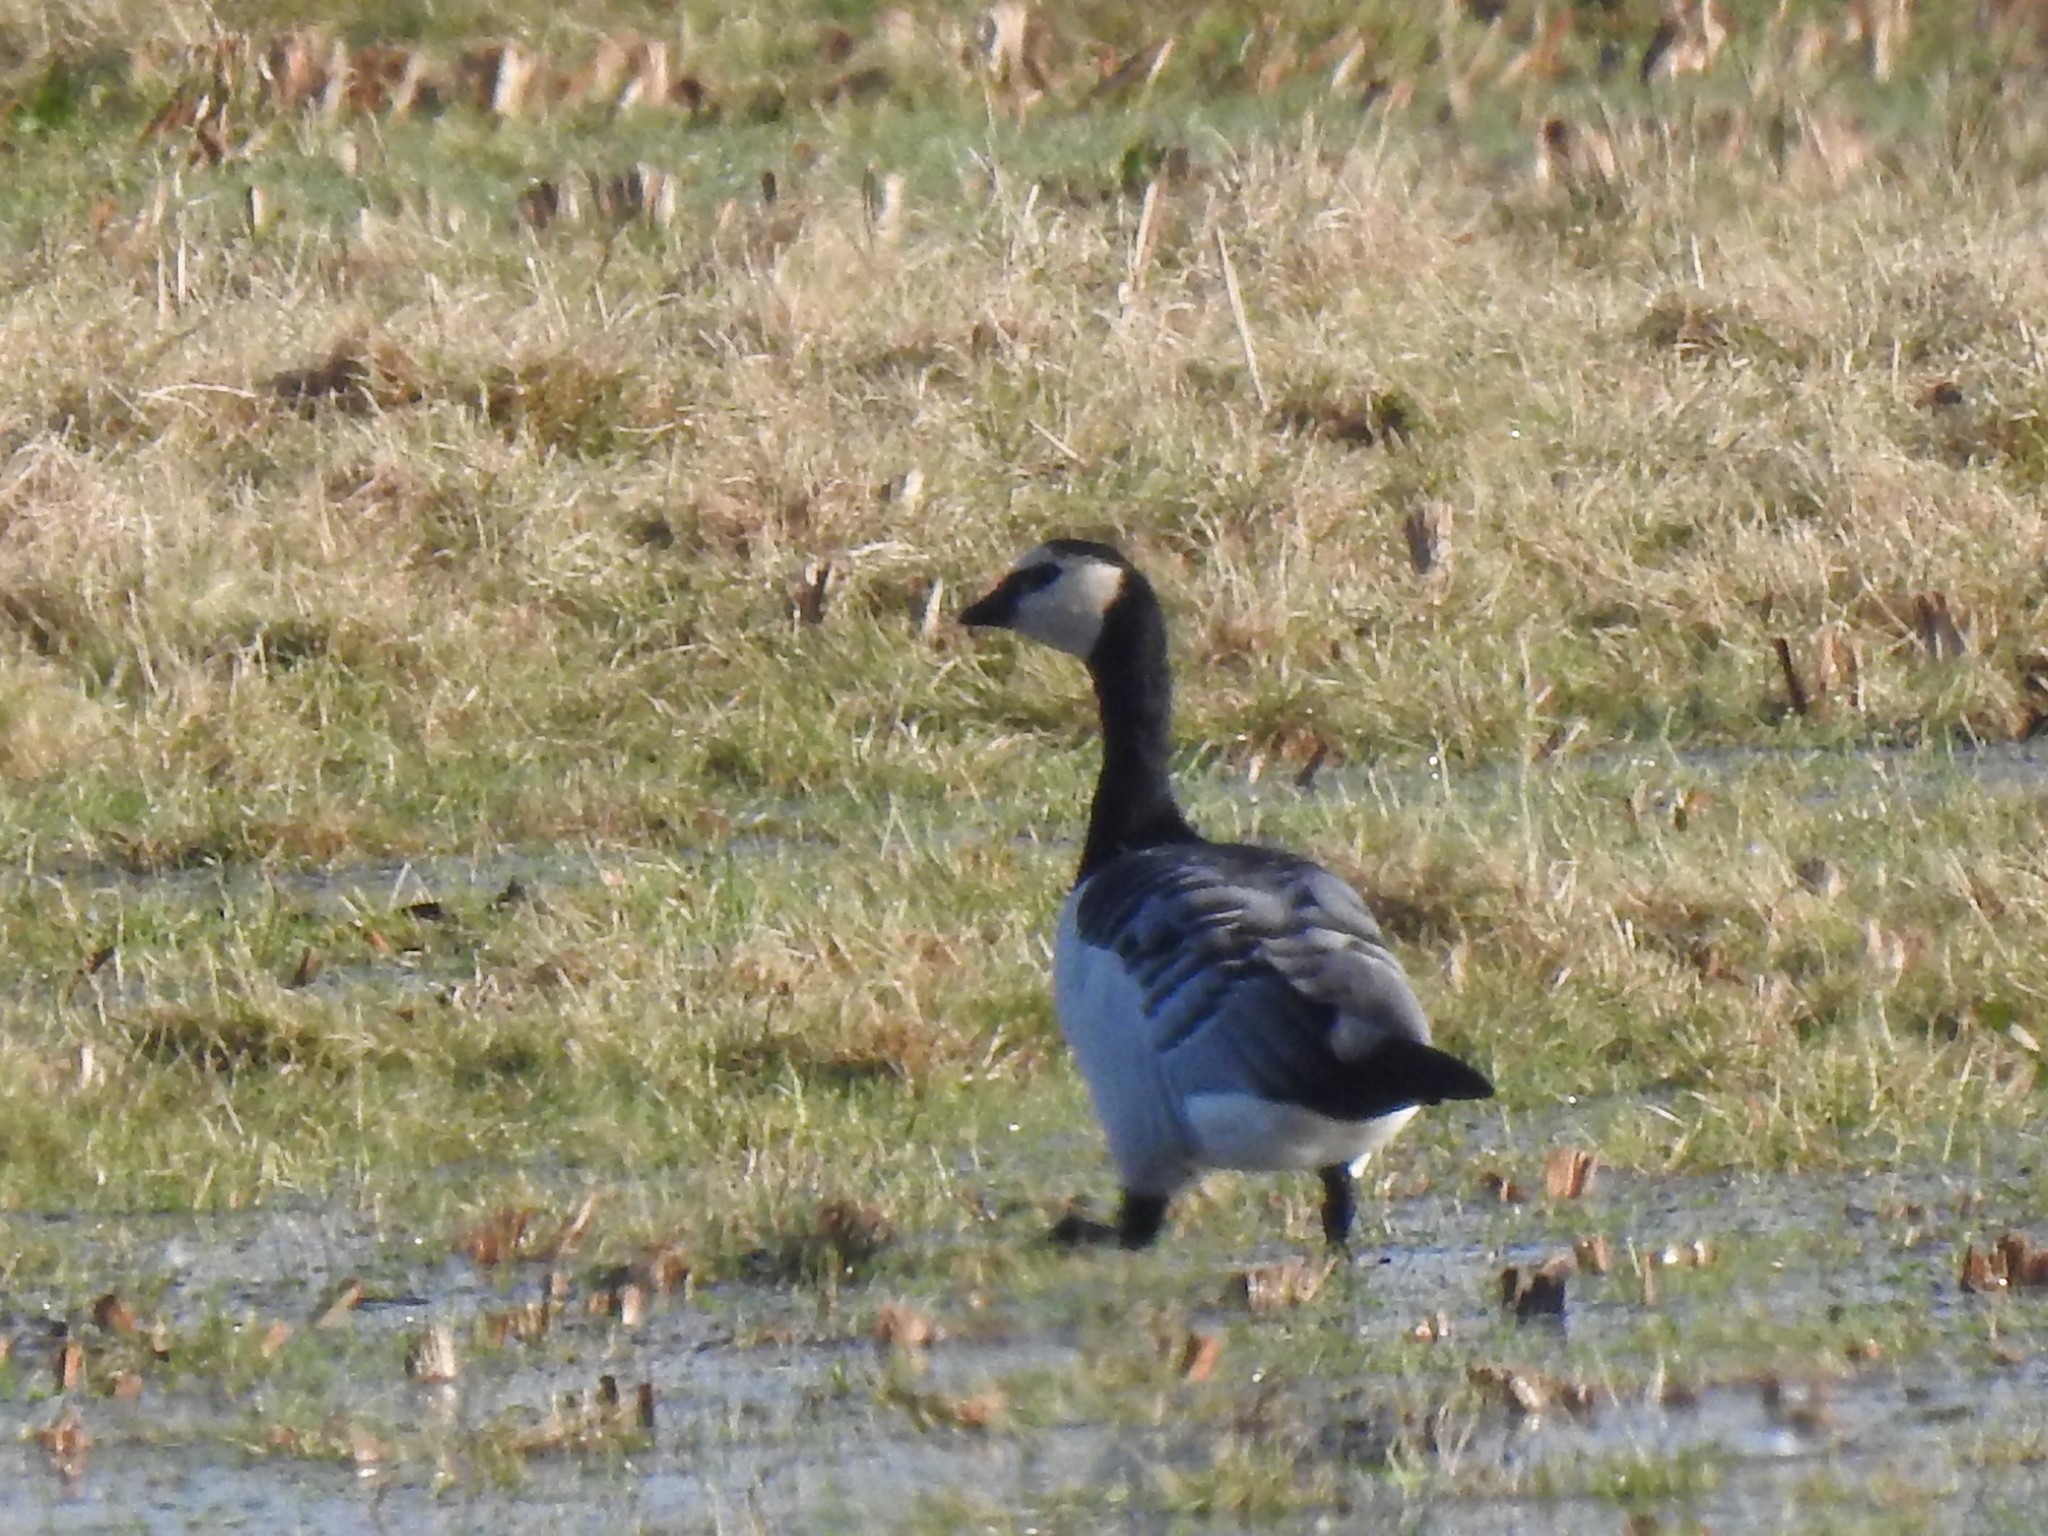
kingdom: Animalia
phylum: Chordata
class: Aves
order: Anseriformes
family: Anatidae
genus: Branta
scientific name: Branta leucopsis
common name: Barnacle goose
